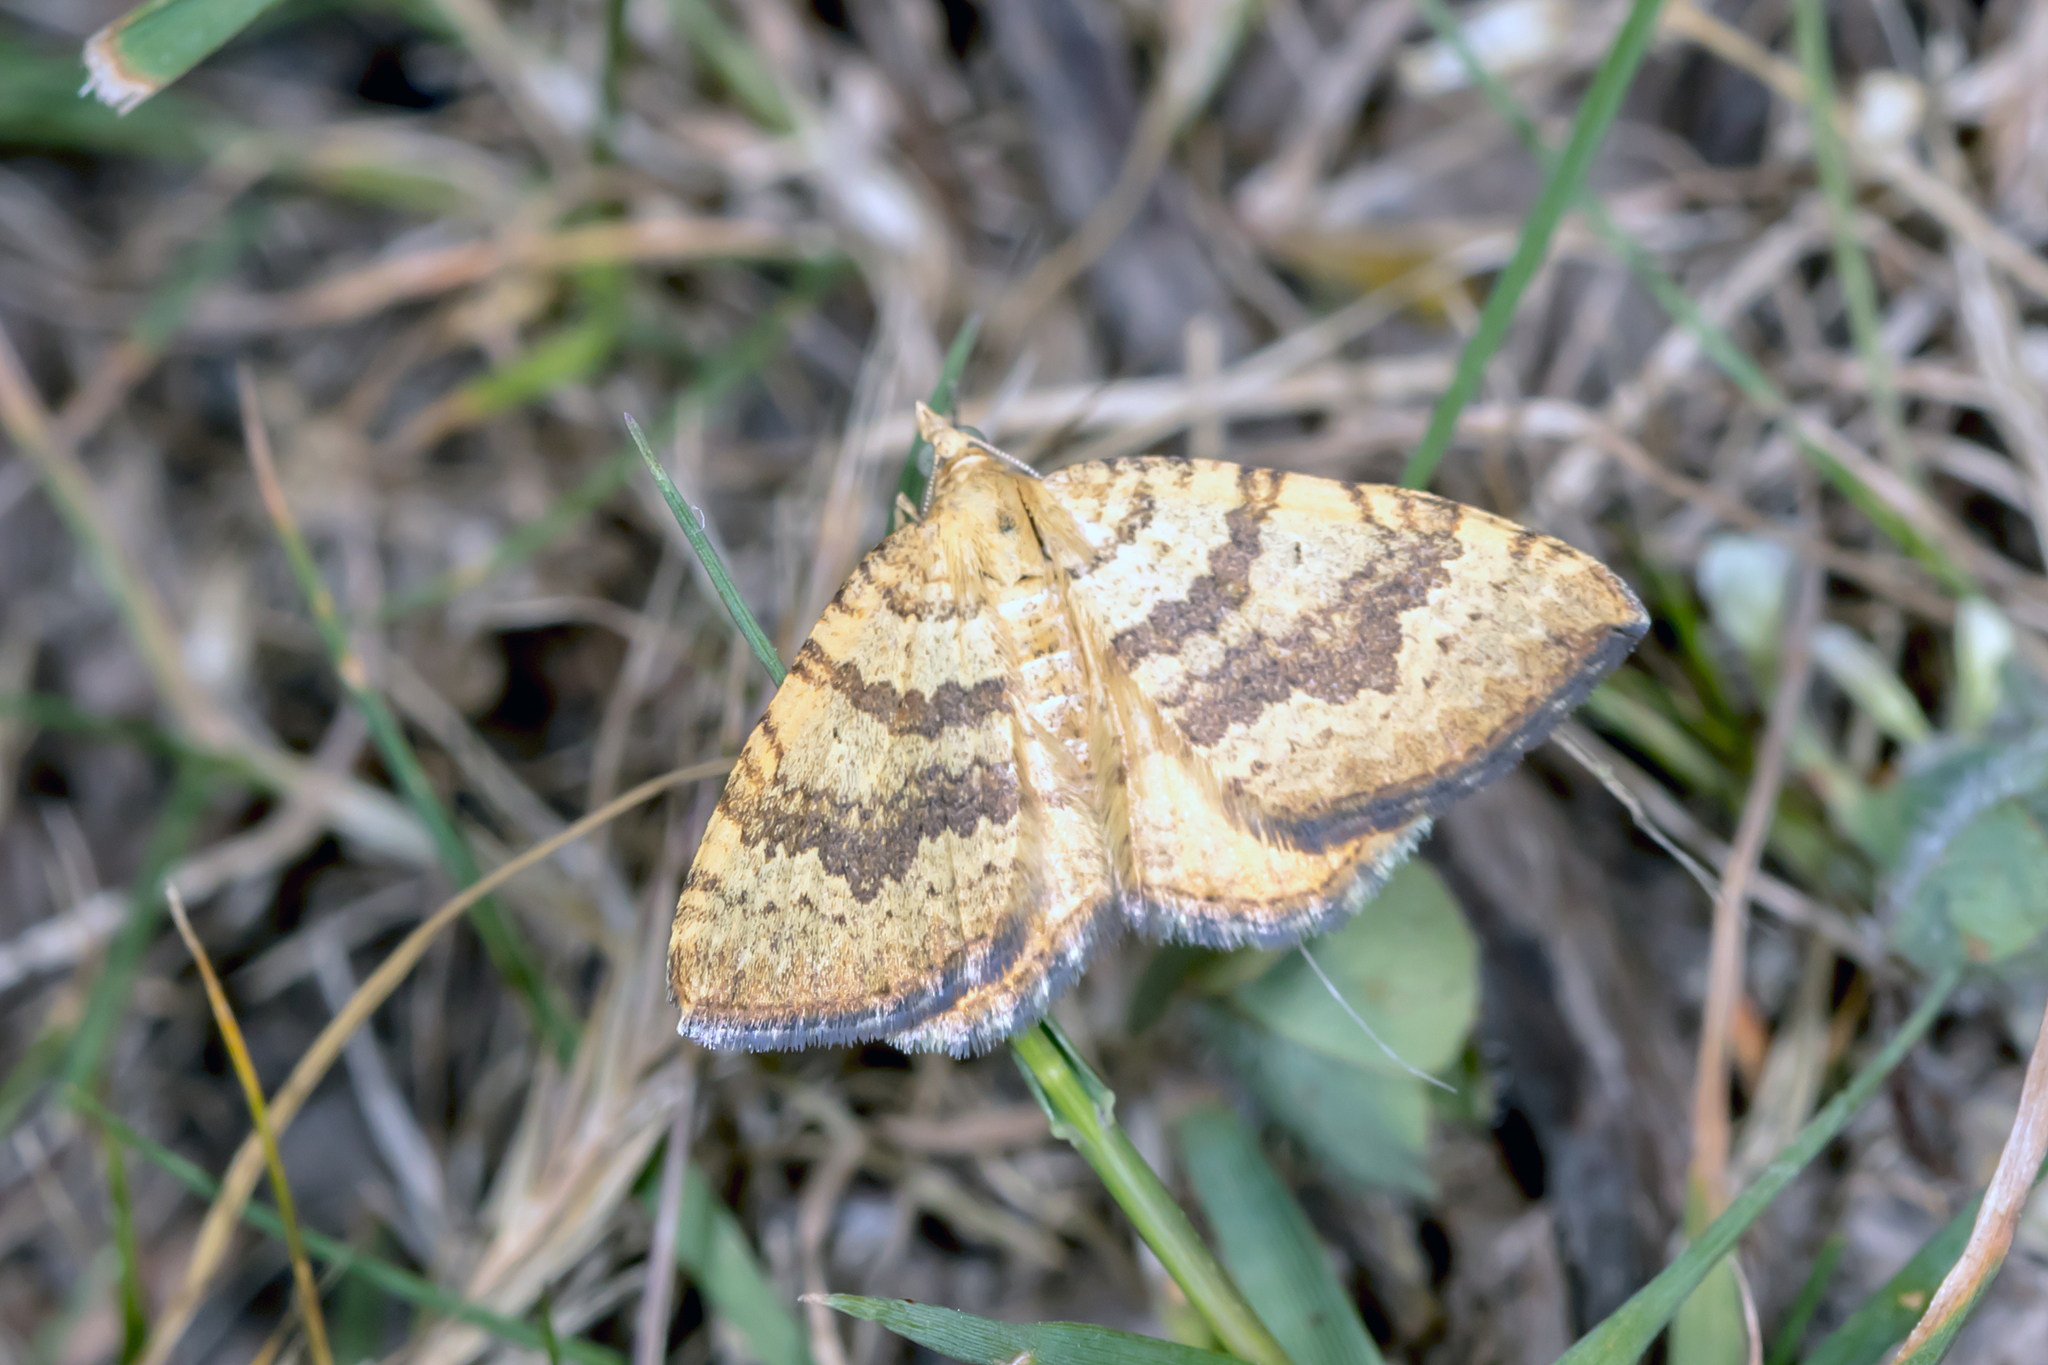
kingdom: Animalia
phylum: Arthropoda
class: Insecta
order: Lepidoptera
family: Geometridae
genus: Chrysolarentia
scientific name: Chrysolarentia
